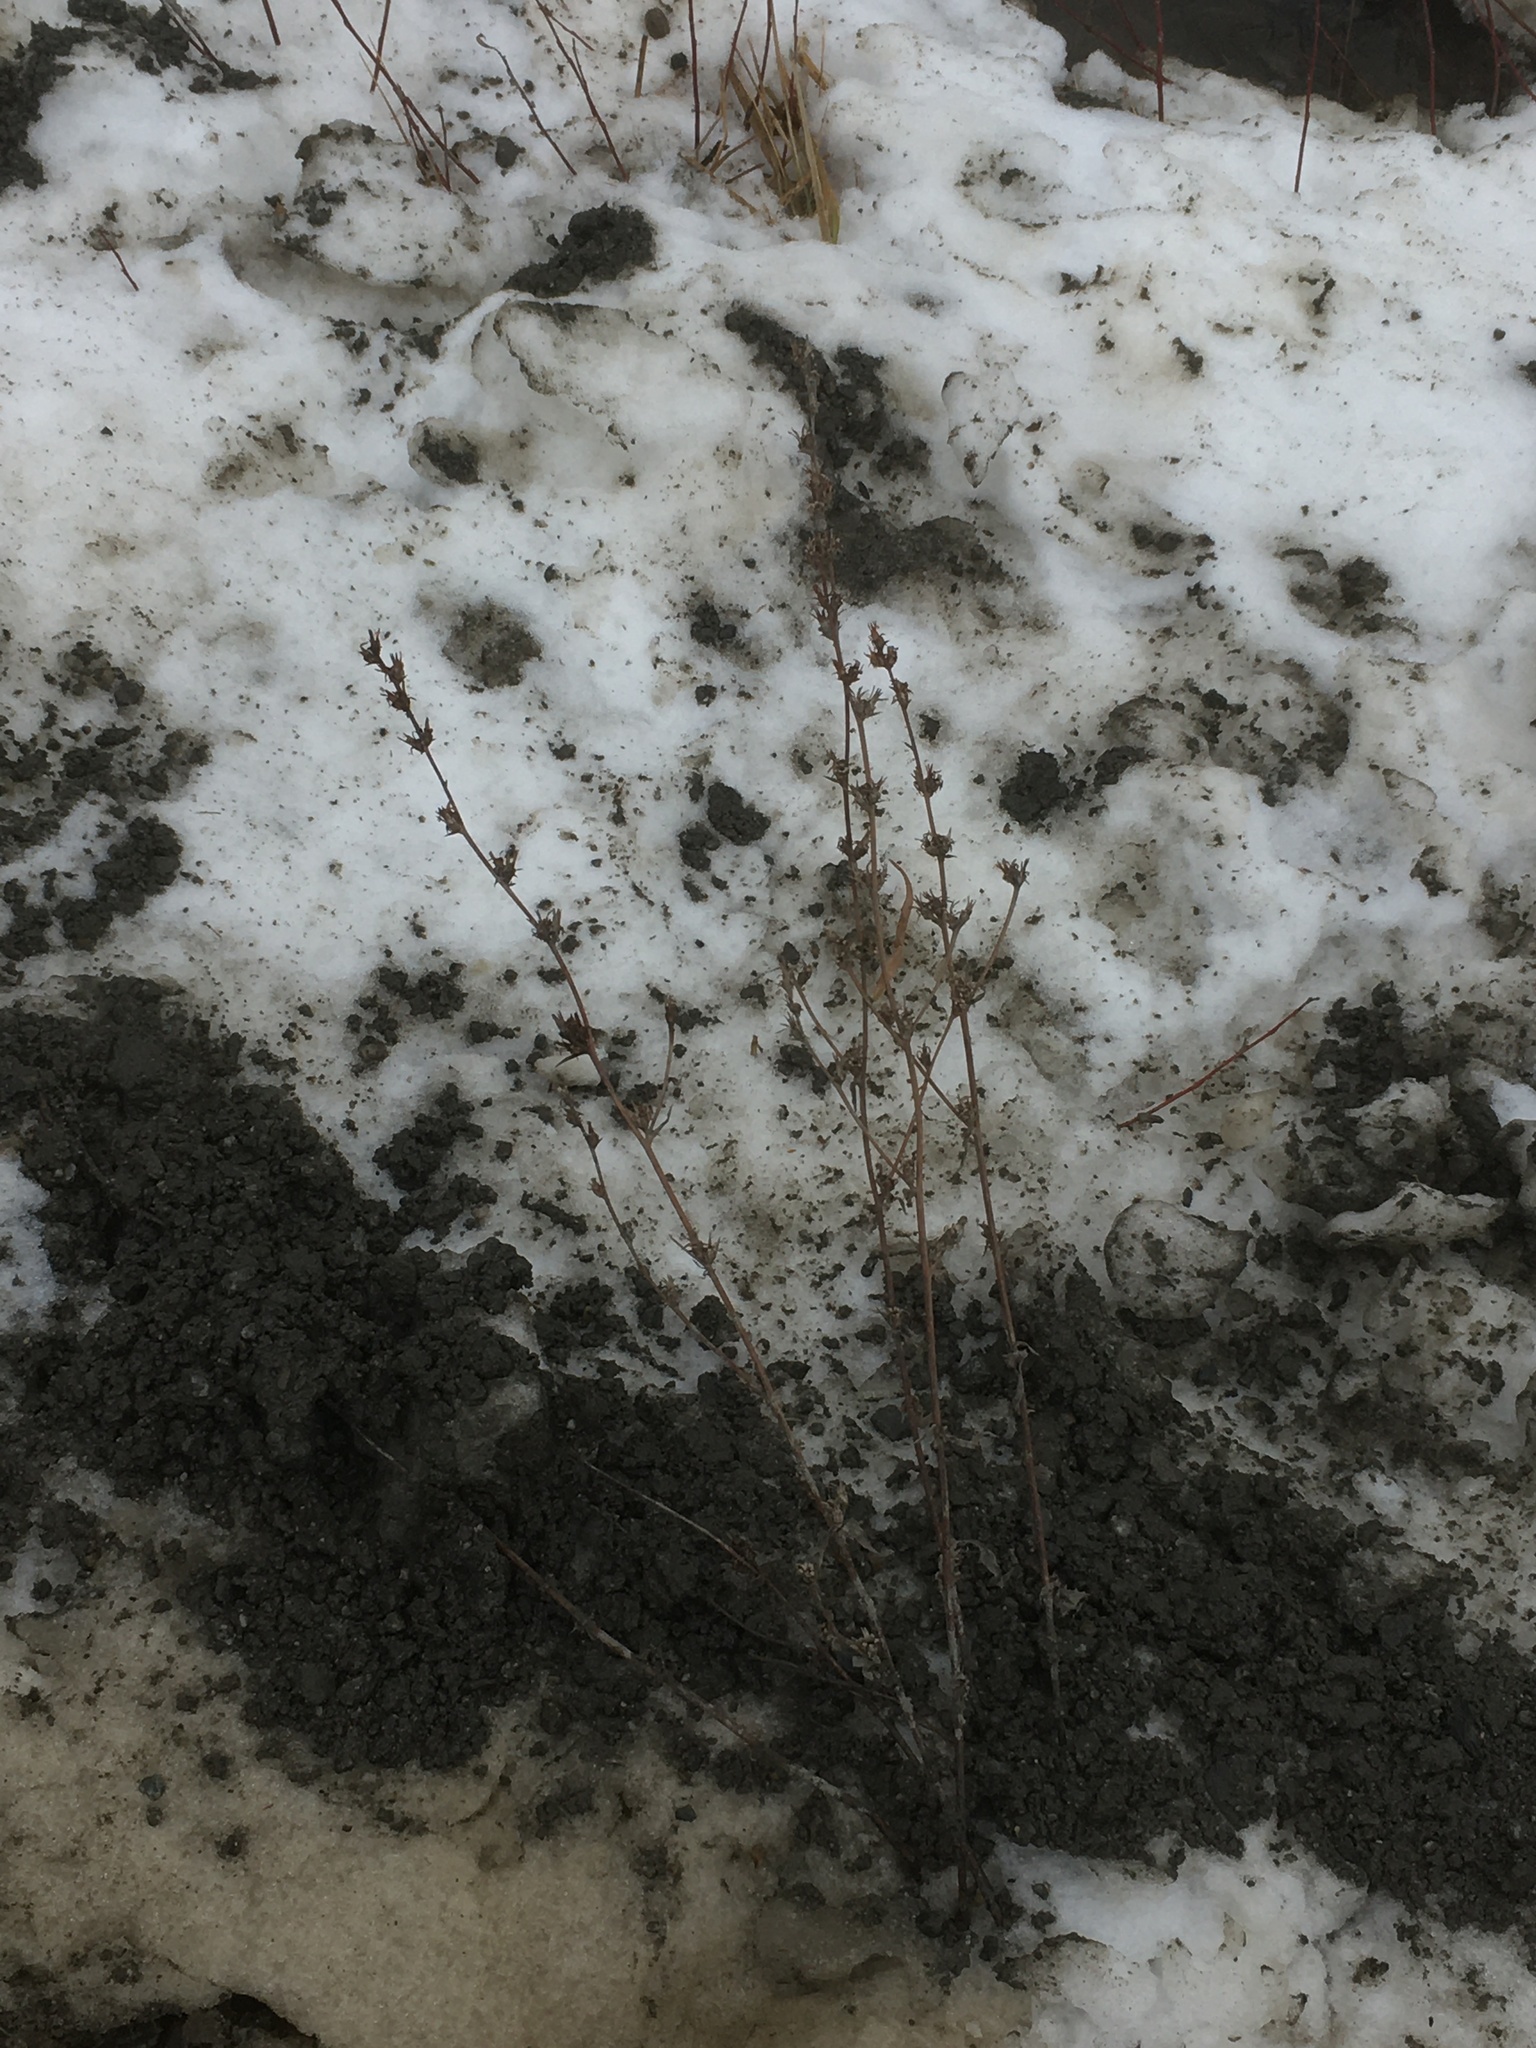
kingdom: Plantae
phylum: Tracheophyta
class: Magnoliopsida
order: Asterales
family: Asteraceae
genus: Cichorium
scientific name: Cichorium intybus
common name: Chicory
